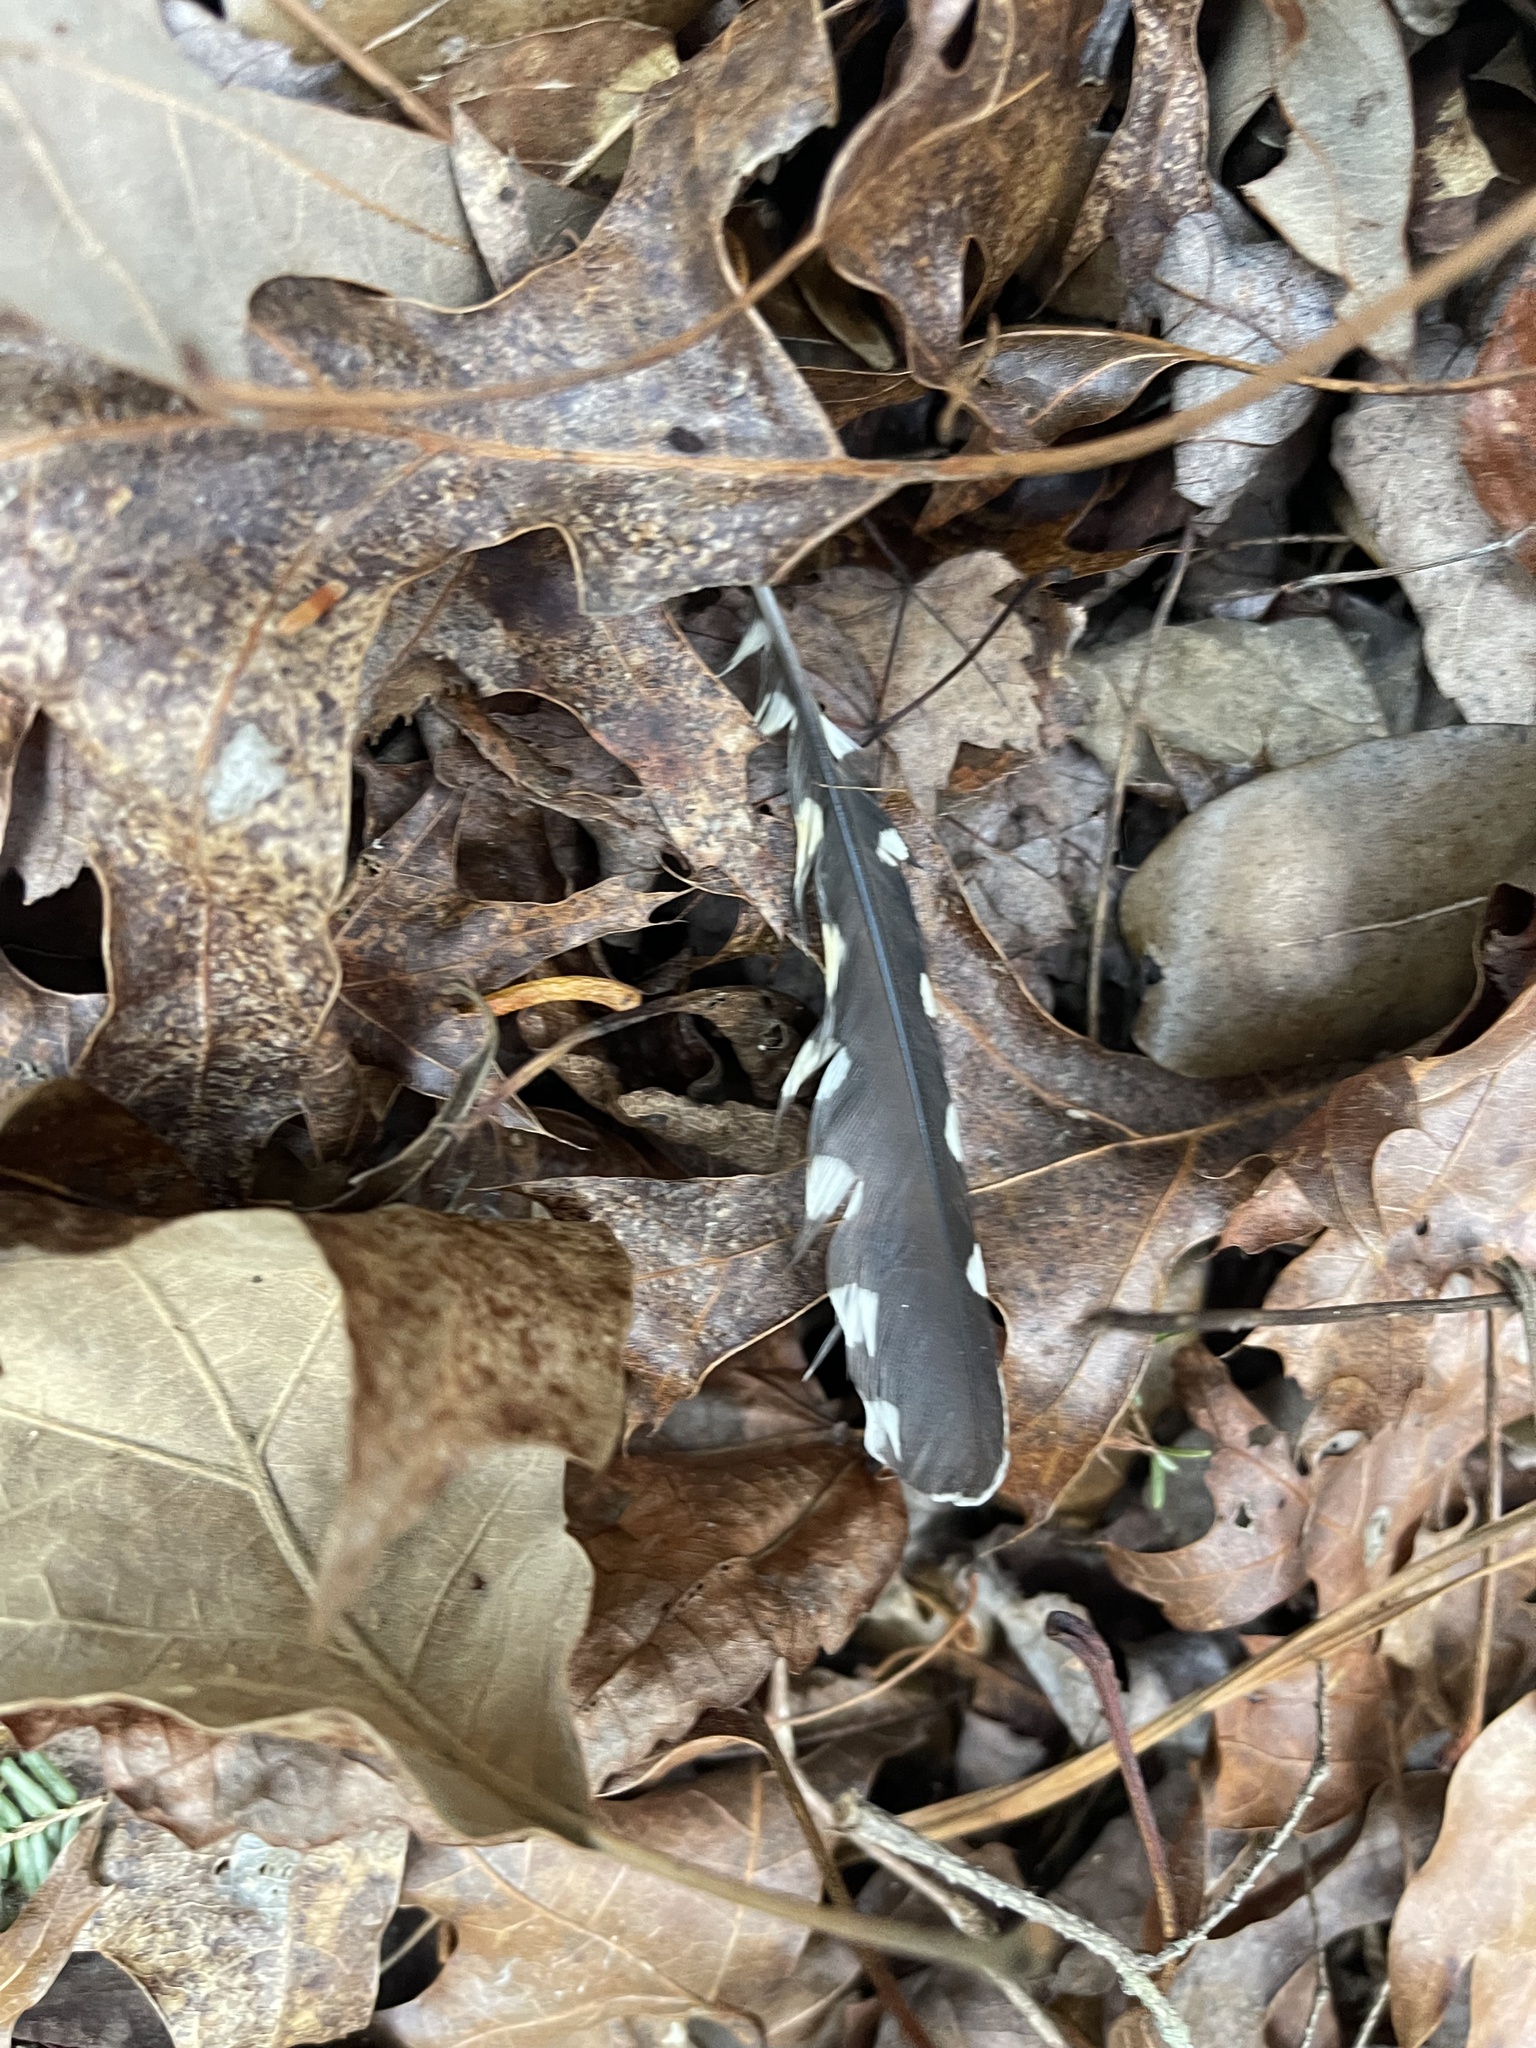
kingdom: Animalia
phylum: Chordata
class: Aves
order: Piciformes
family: Picidae
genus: Sphyrapicus
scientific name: Sphyrapicus varius
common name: Yellow-bellied sapsucker
